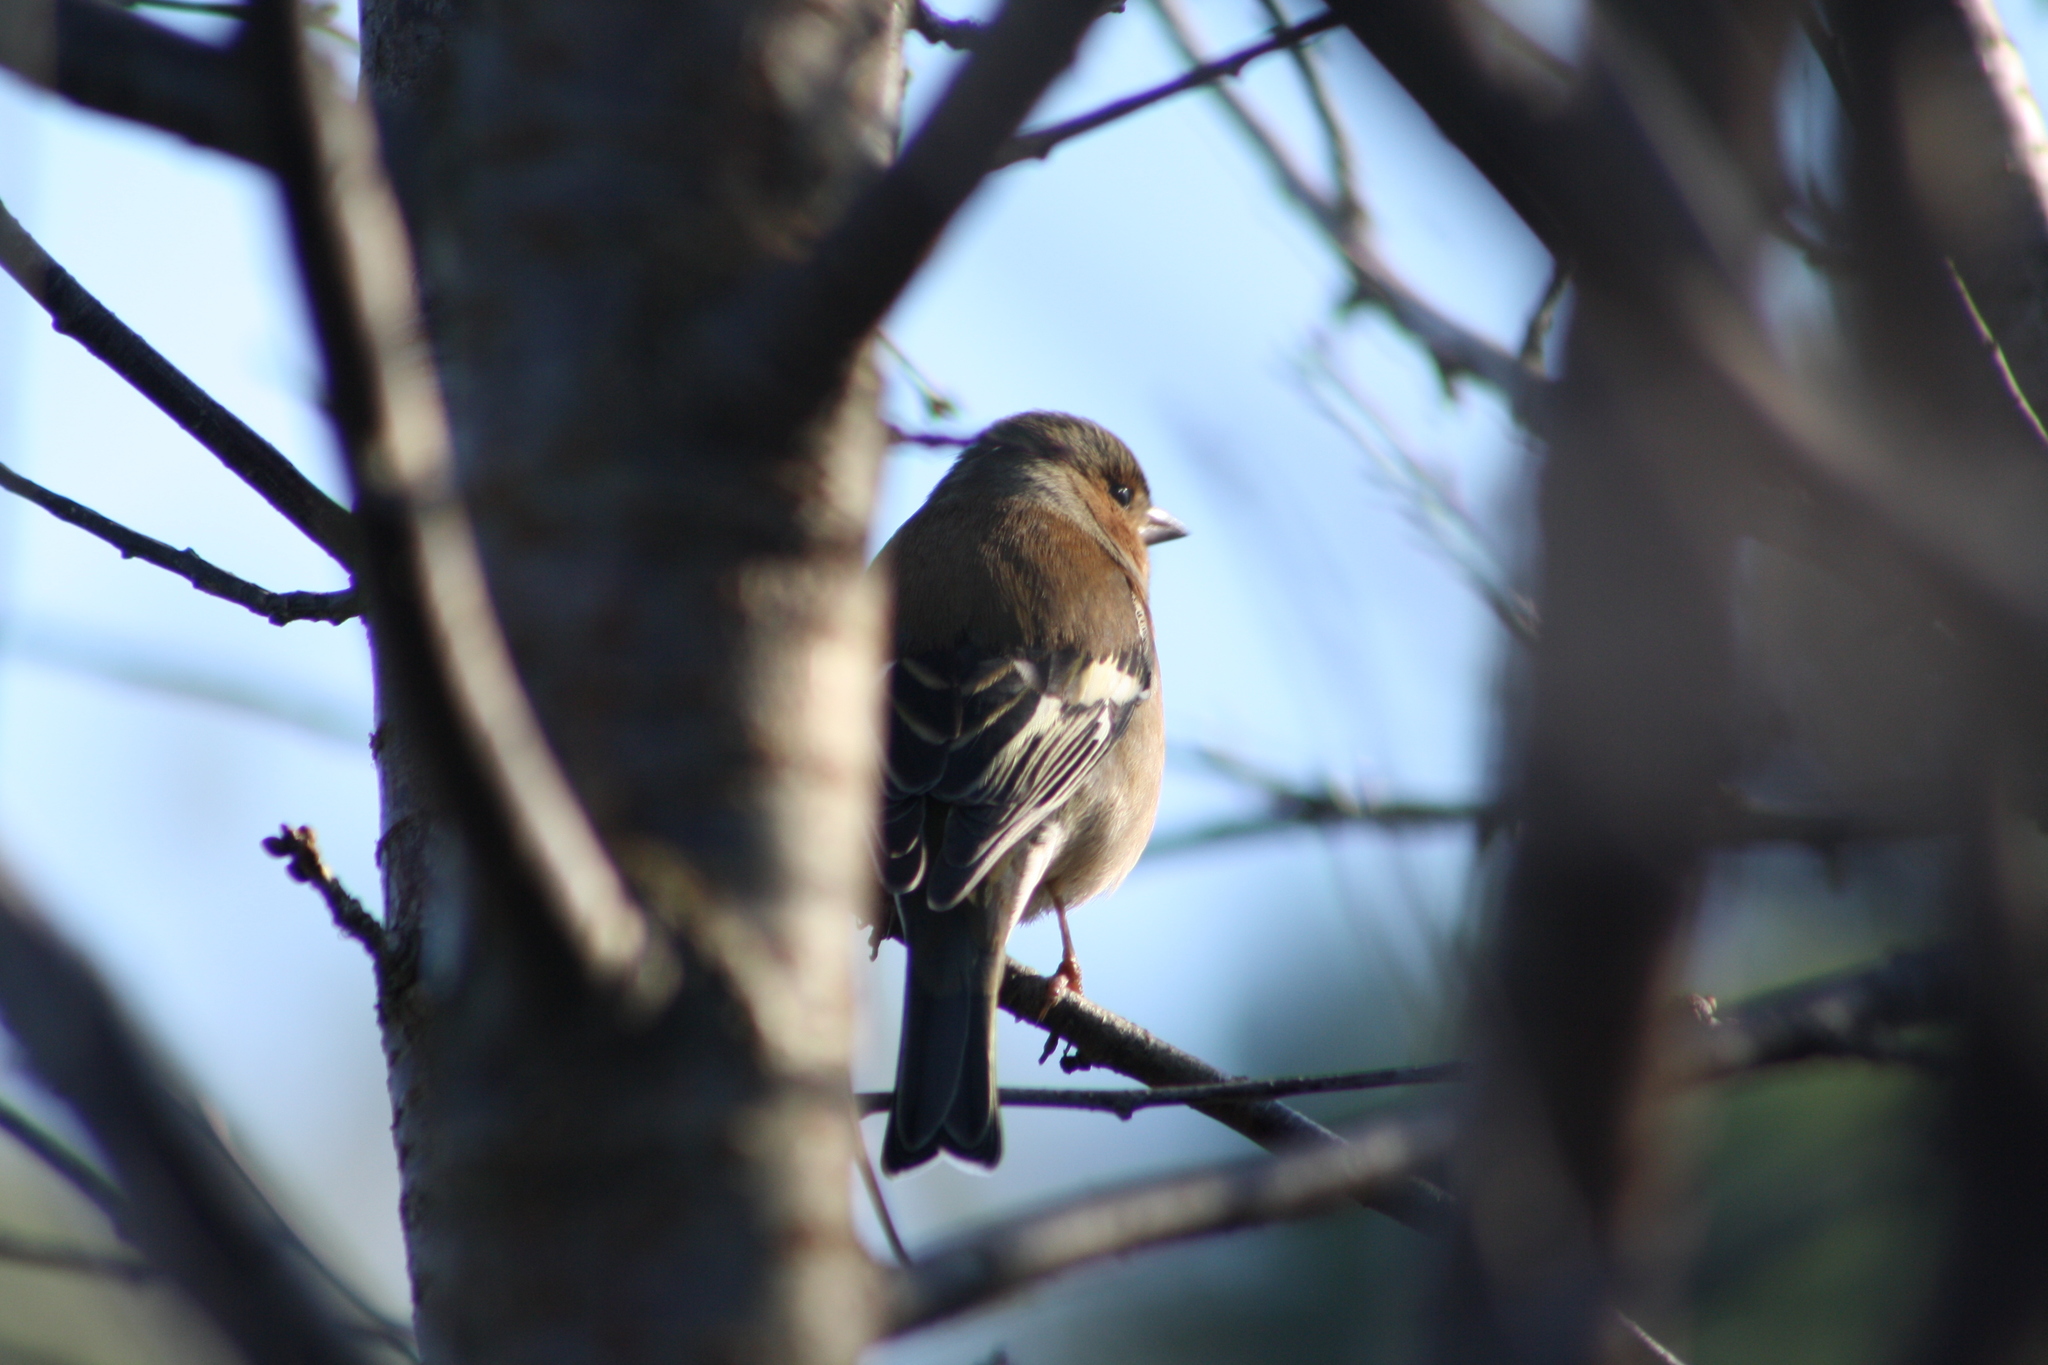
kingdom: Animalia
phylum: Chordata
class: Aves
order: Passeriformes
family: Fringillidae
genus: Fringilla
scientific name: Fringilla coelebs
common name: Common chaffinch
